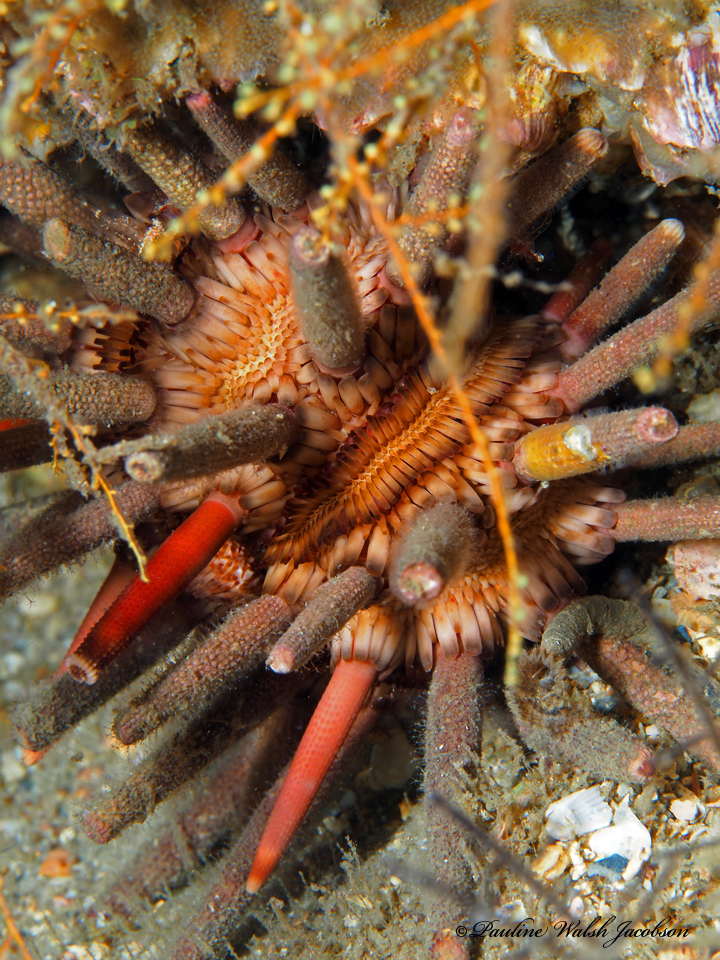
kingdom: Animalia
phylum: Echinodermata
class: Echinoidea
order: Cidaroida
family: Cidaridae
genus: Eucidaris
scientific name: Eucidaris tribuloides
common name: Slate pencil urchin
